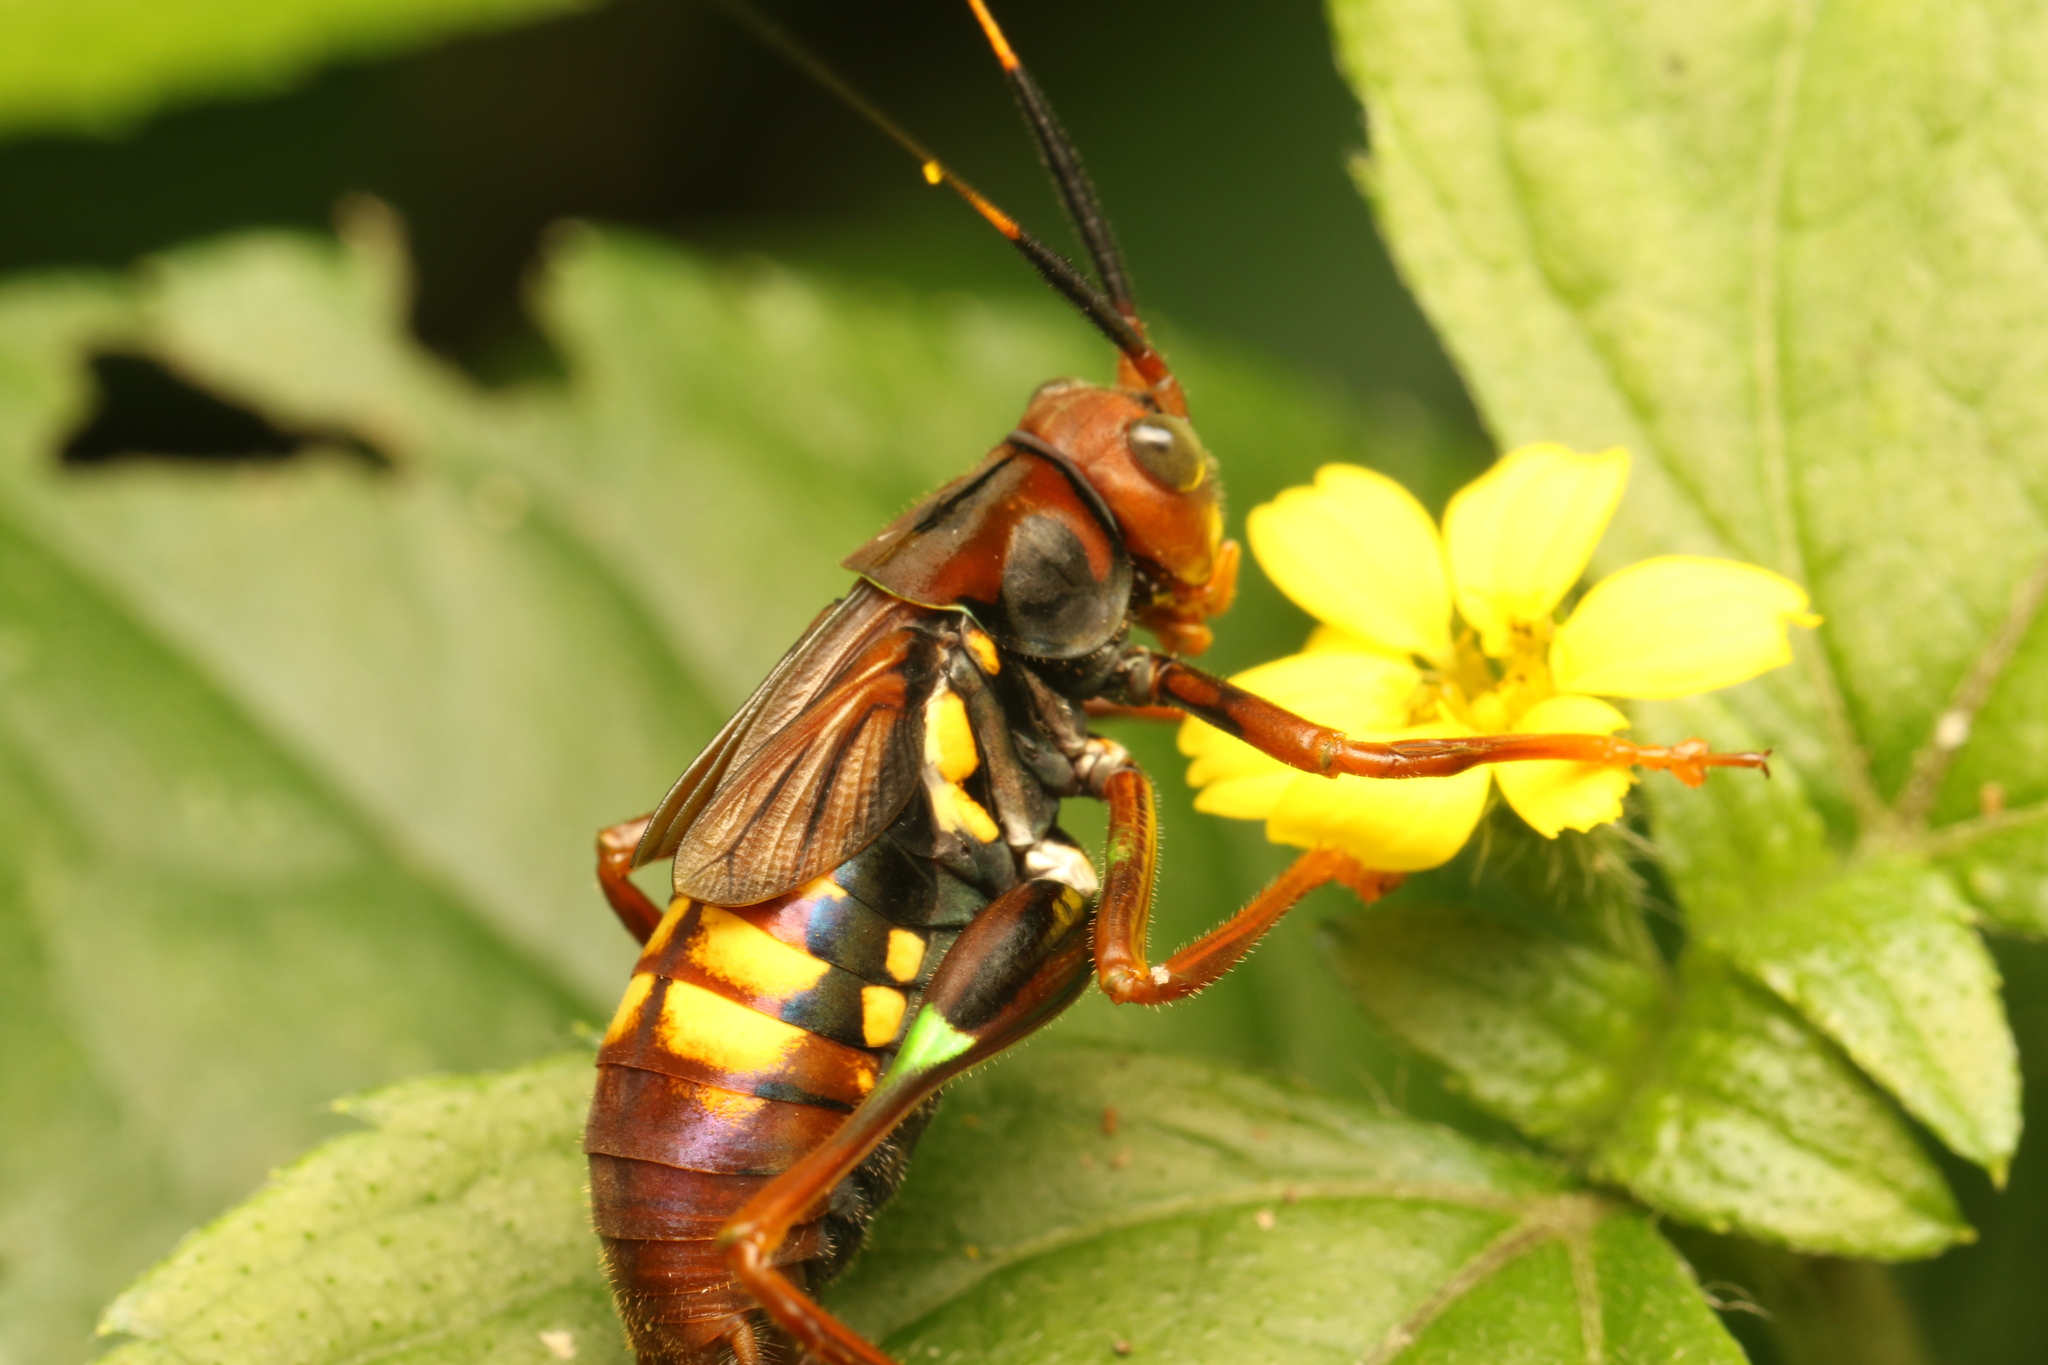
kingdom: Animalia
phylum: Arthropoda
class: Insecta
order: Orthoptera
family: Tettigoniidae
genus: Scaphura
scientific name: Scaphura nigra
